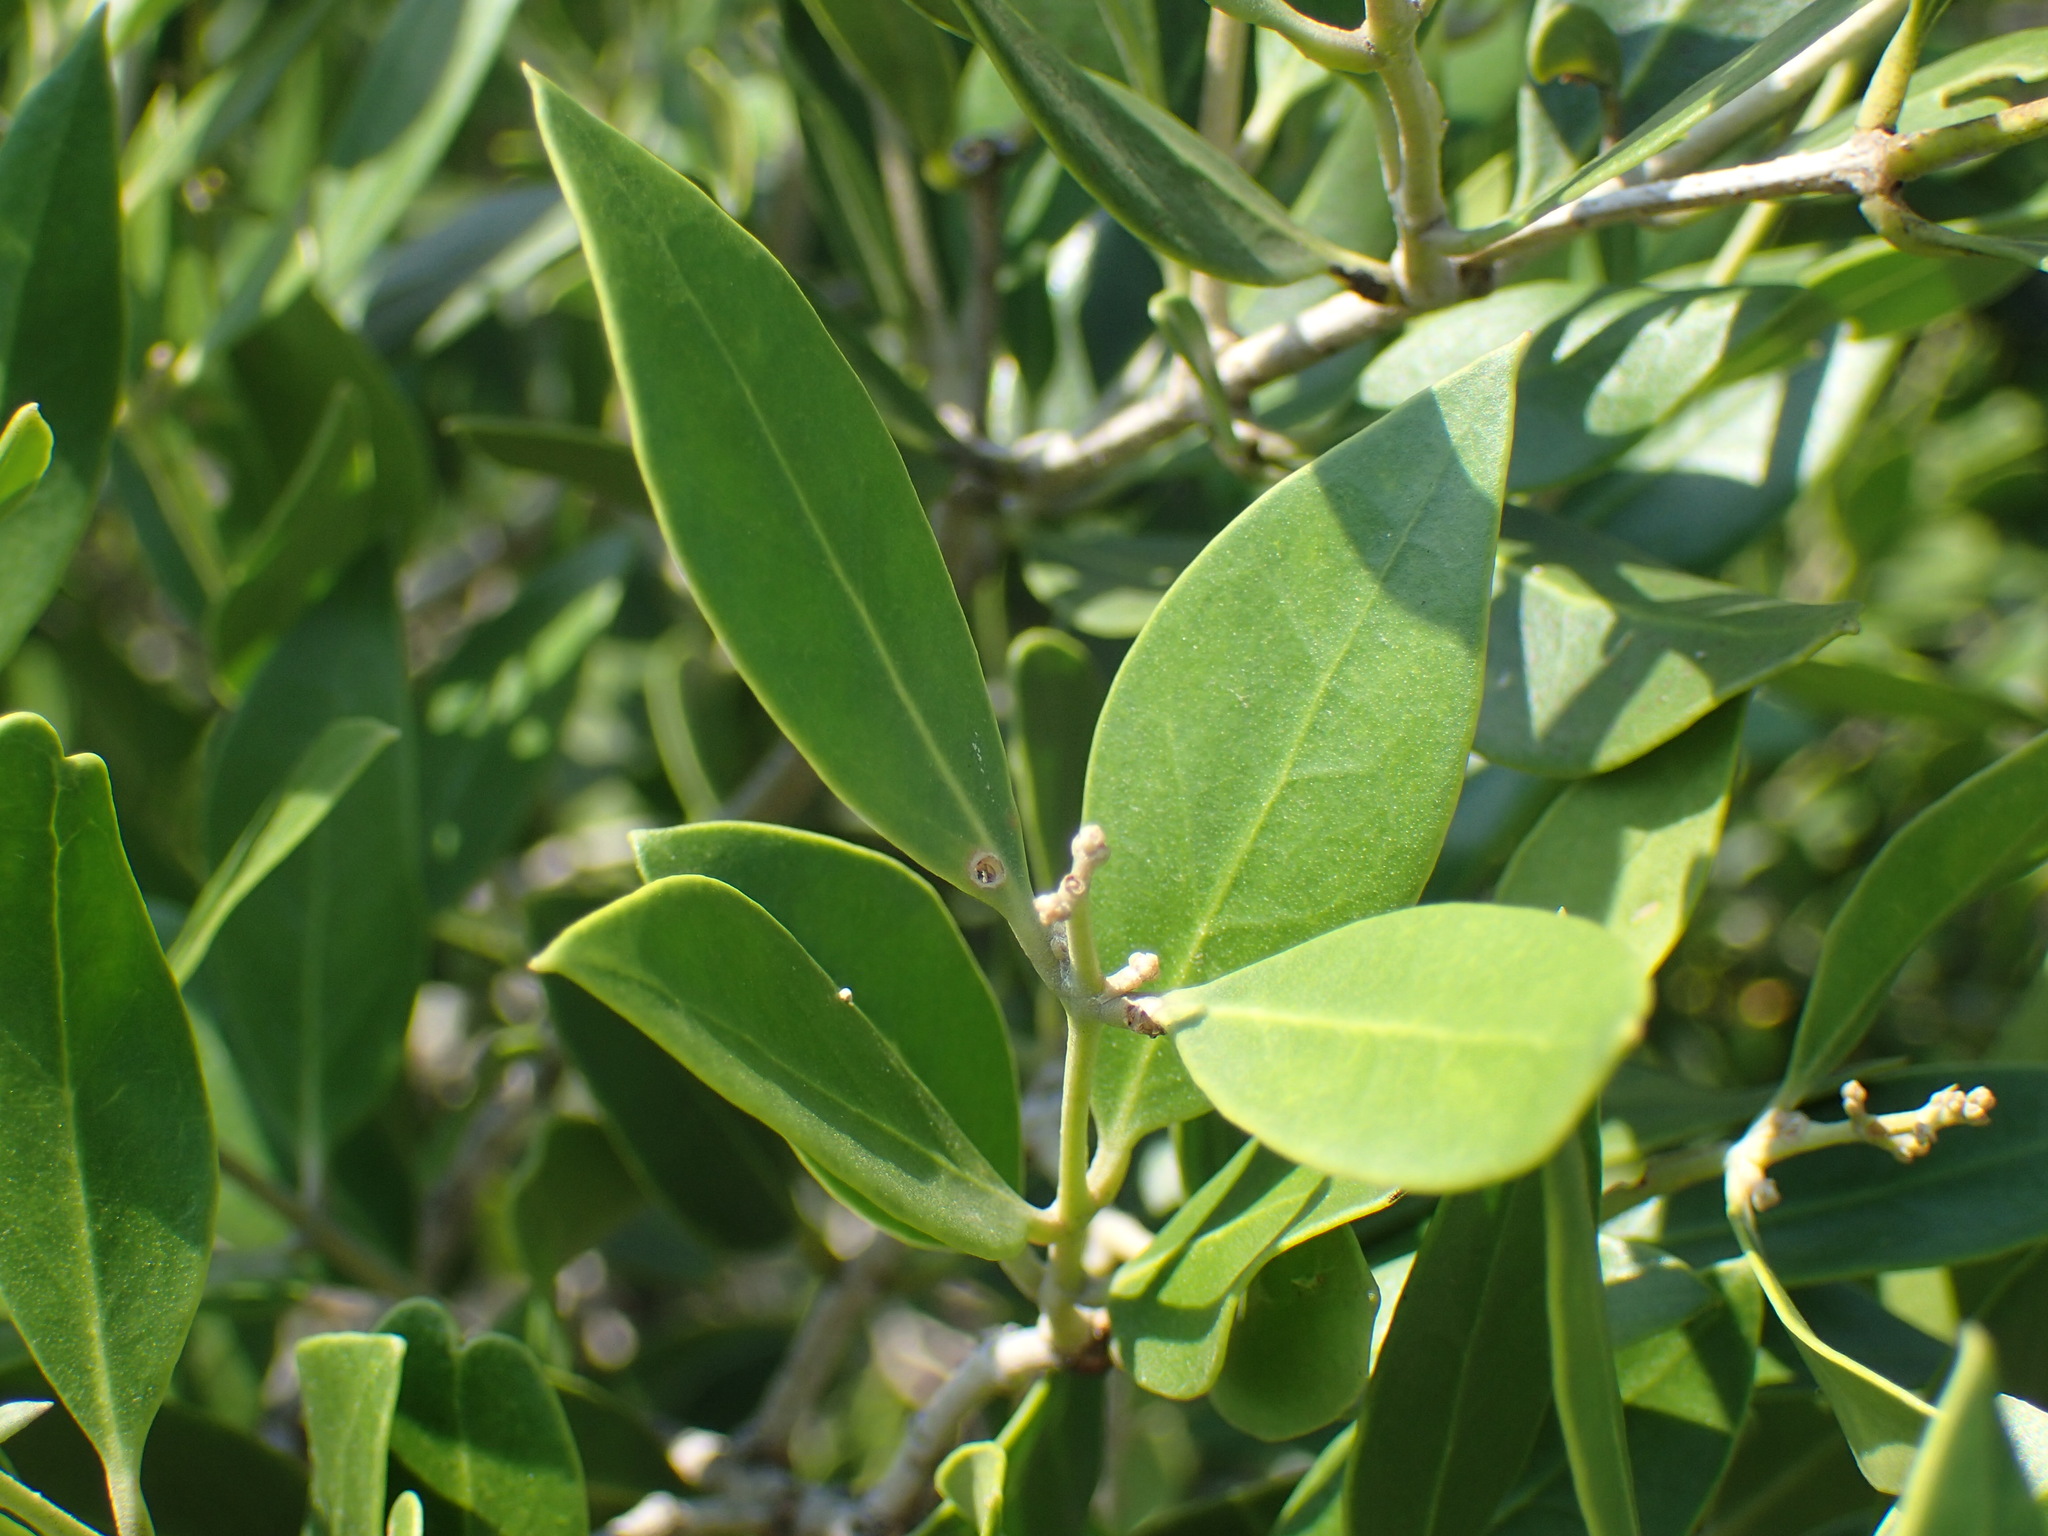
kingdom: Plantae
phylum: Tracheophyta
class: Magnoliopsida
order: Lamiales
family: Oleaceae
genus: Olea
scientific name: Olea capensis
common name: Black ironwood
